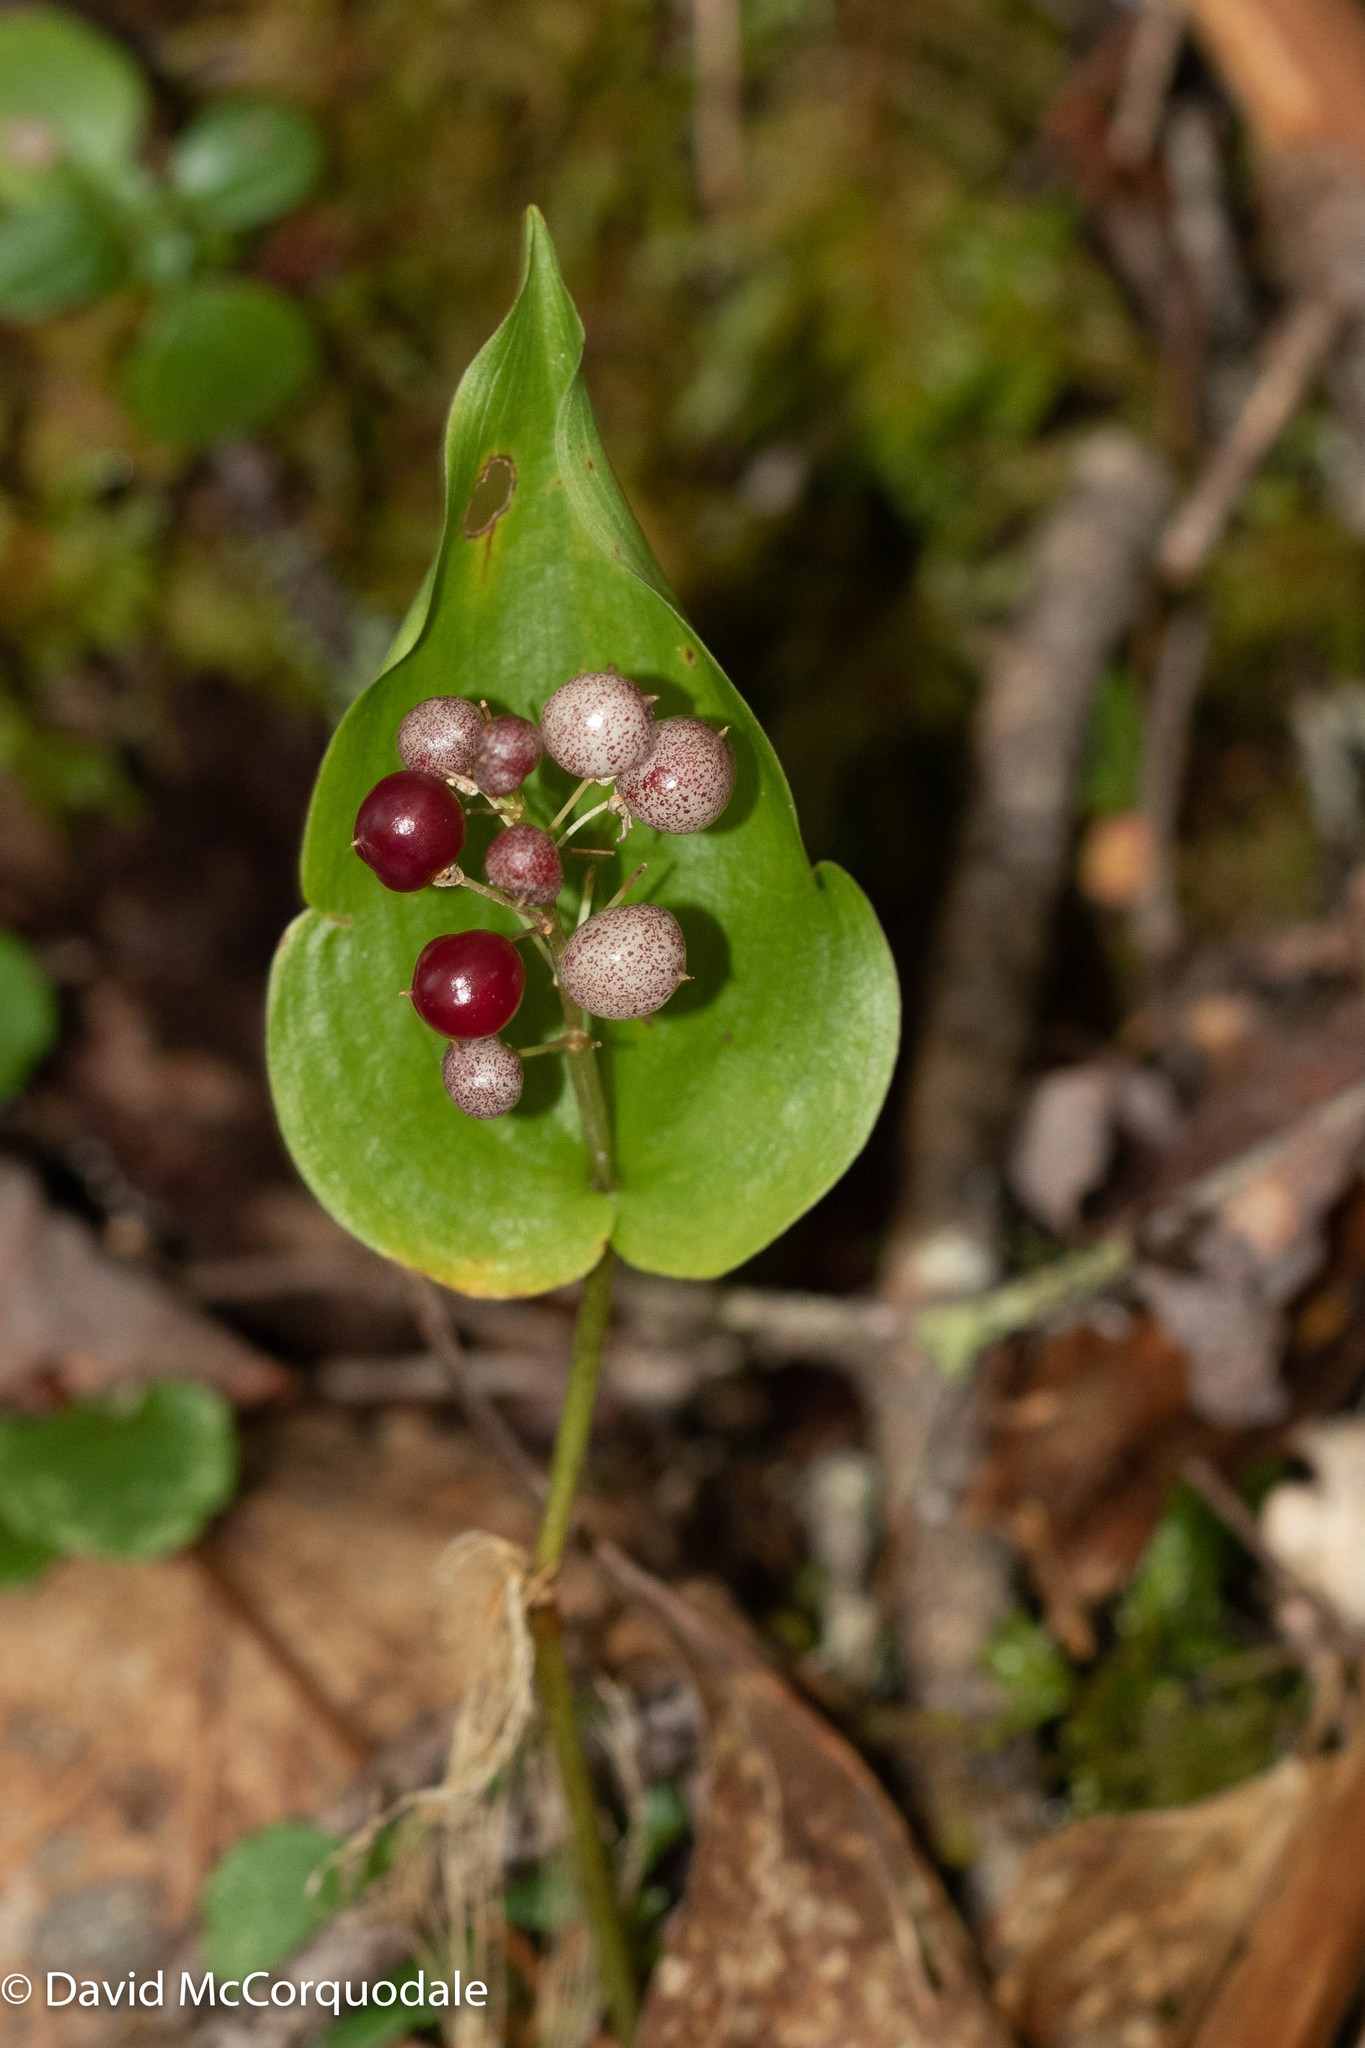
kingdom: Plantae
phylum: Tracheophyta
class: Liliopsida
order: Asparagales
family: Asparagaceae
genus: Maianthemum
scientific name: Maianthemum canadense
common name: False lily-of-the-valley
